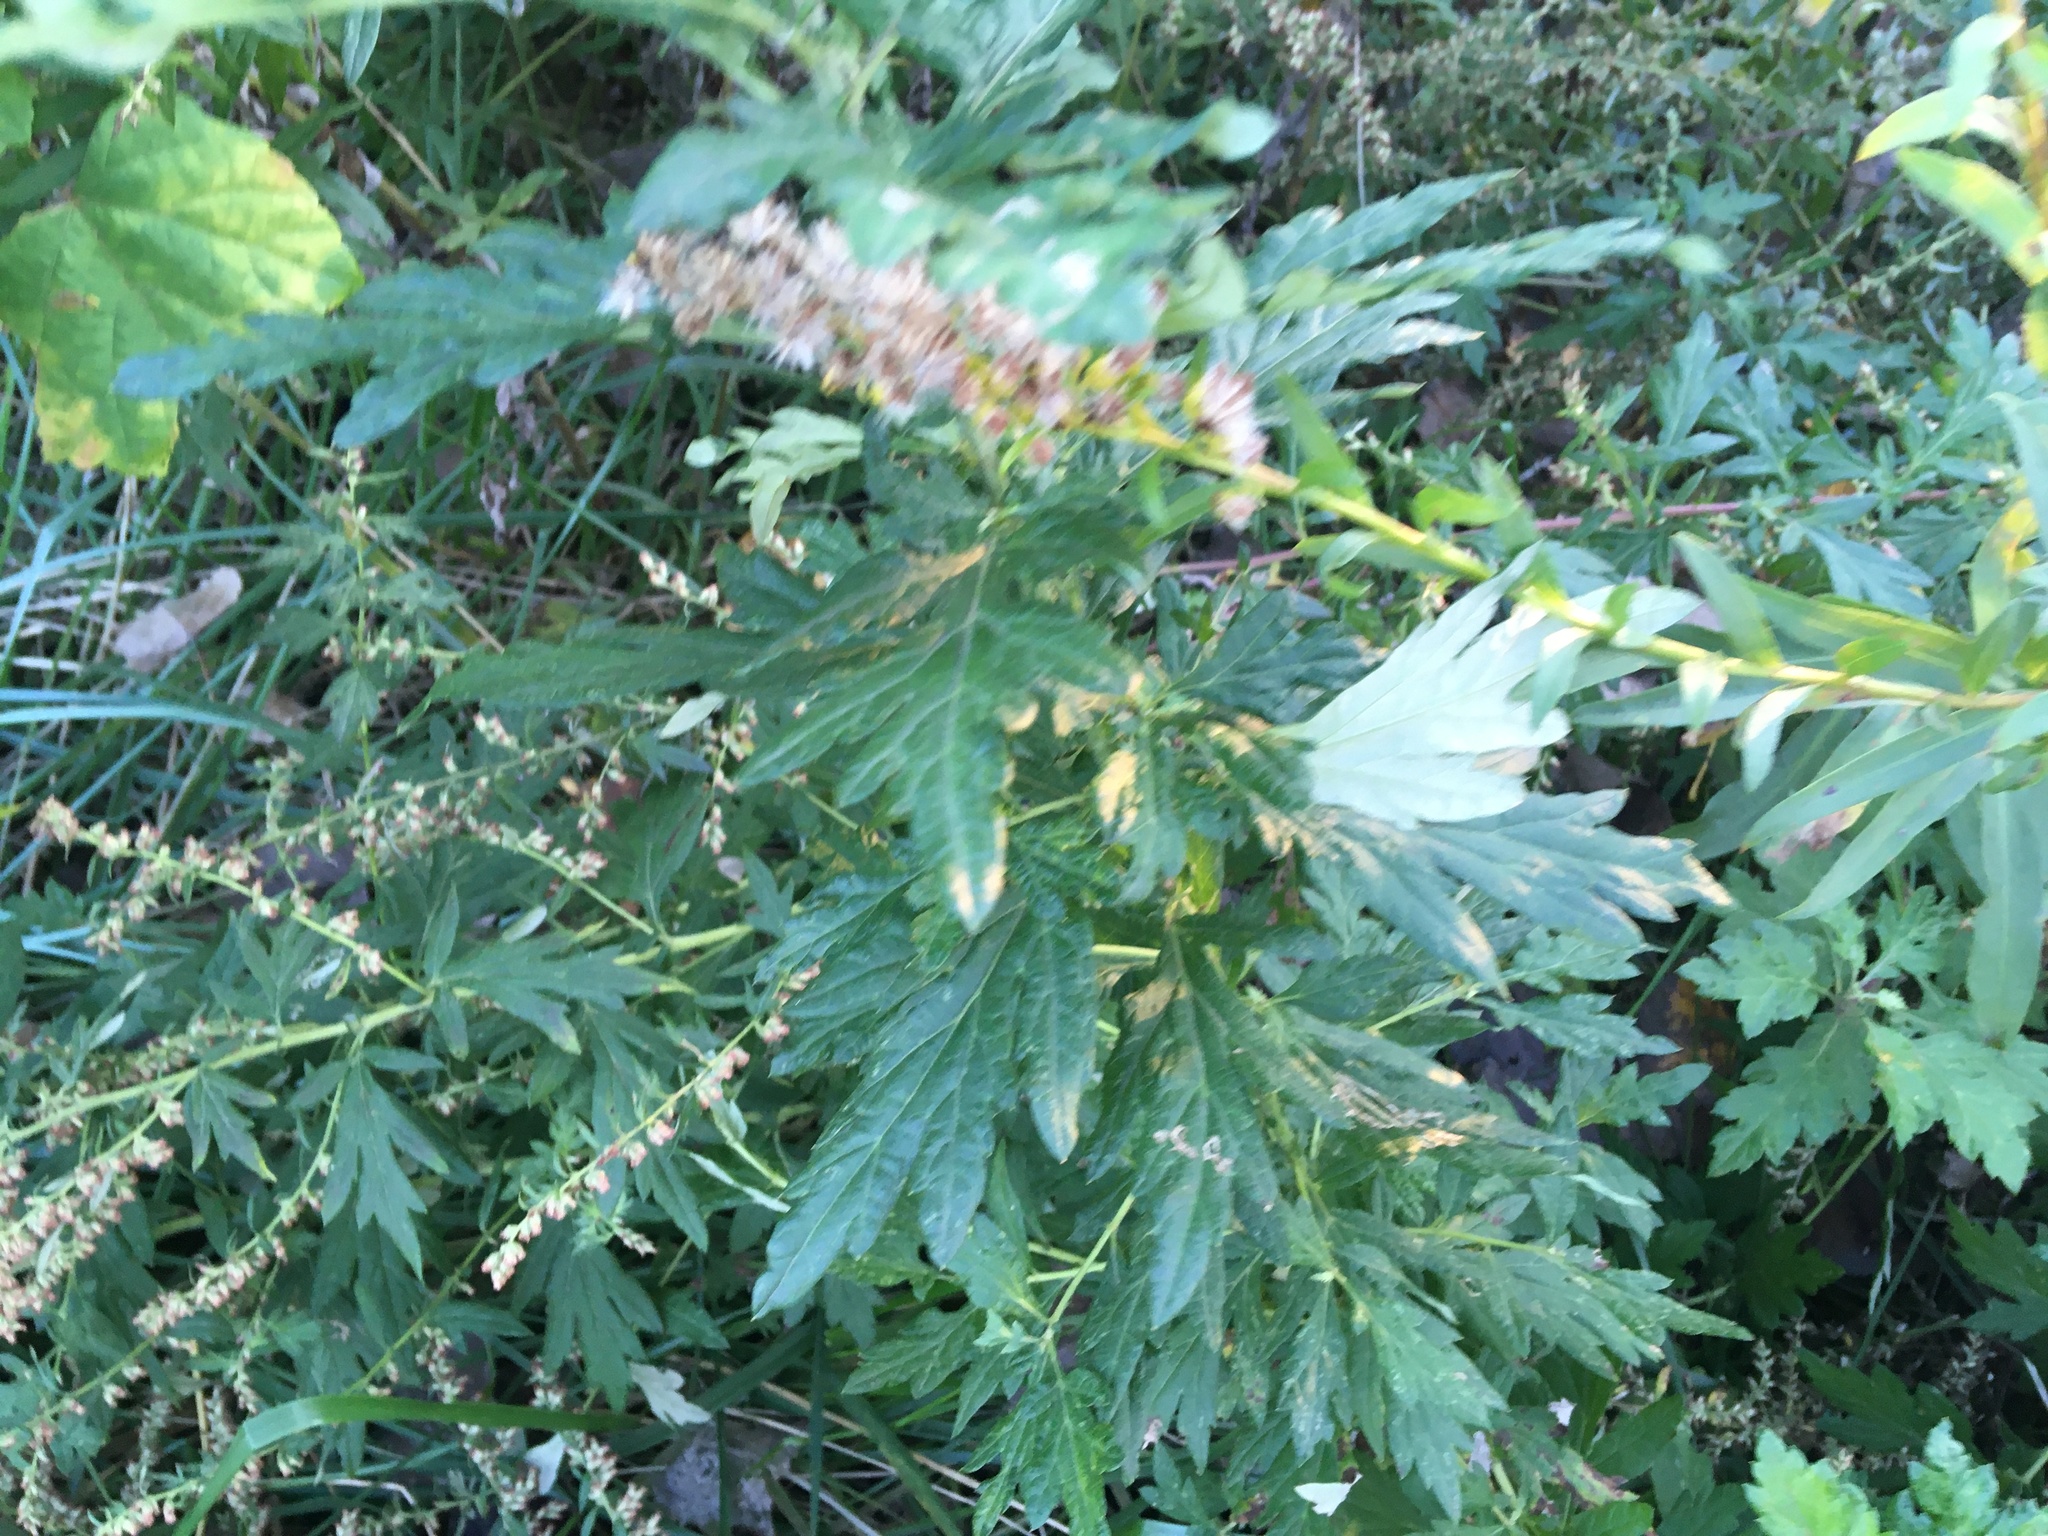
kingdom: Plantae
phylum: Tracheophyta
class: Magnoliopsida
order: Asterales
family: Asteraceae
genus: Artemisia
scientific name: Artemisia vulgaris
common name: Mugwort
